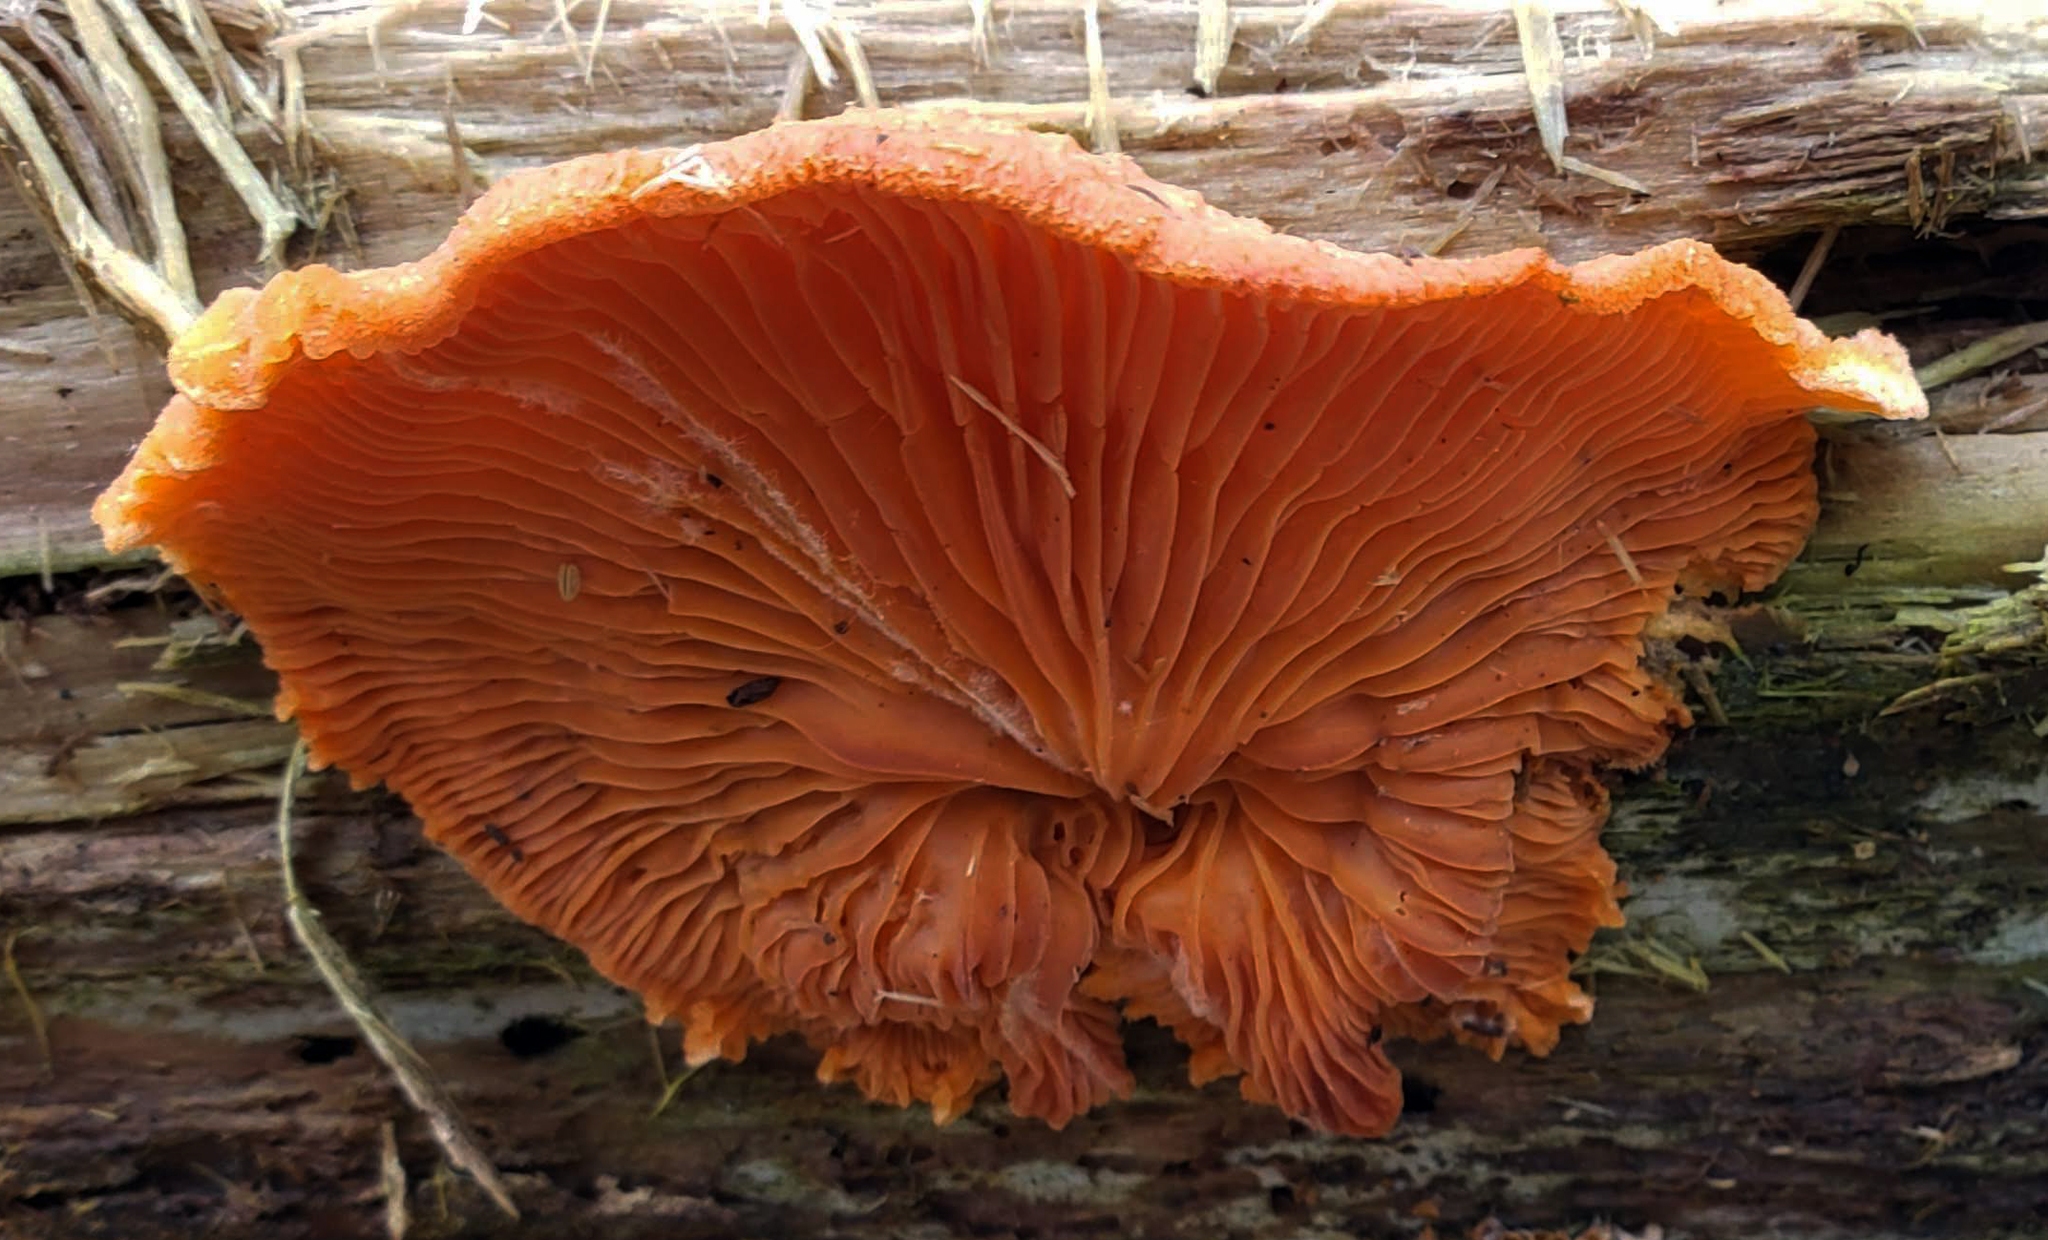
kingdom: Fungi
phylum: Basidiomycota
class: Agaricomycetes
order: Agaricales
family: Phyllotopsidaceae
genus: Phyllotopsis
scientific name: Phyllotopsis nidulans
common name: Orange mock oyster
